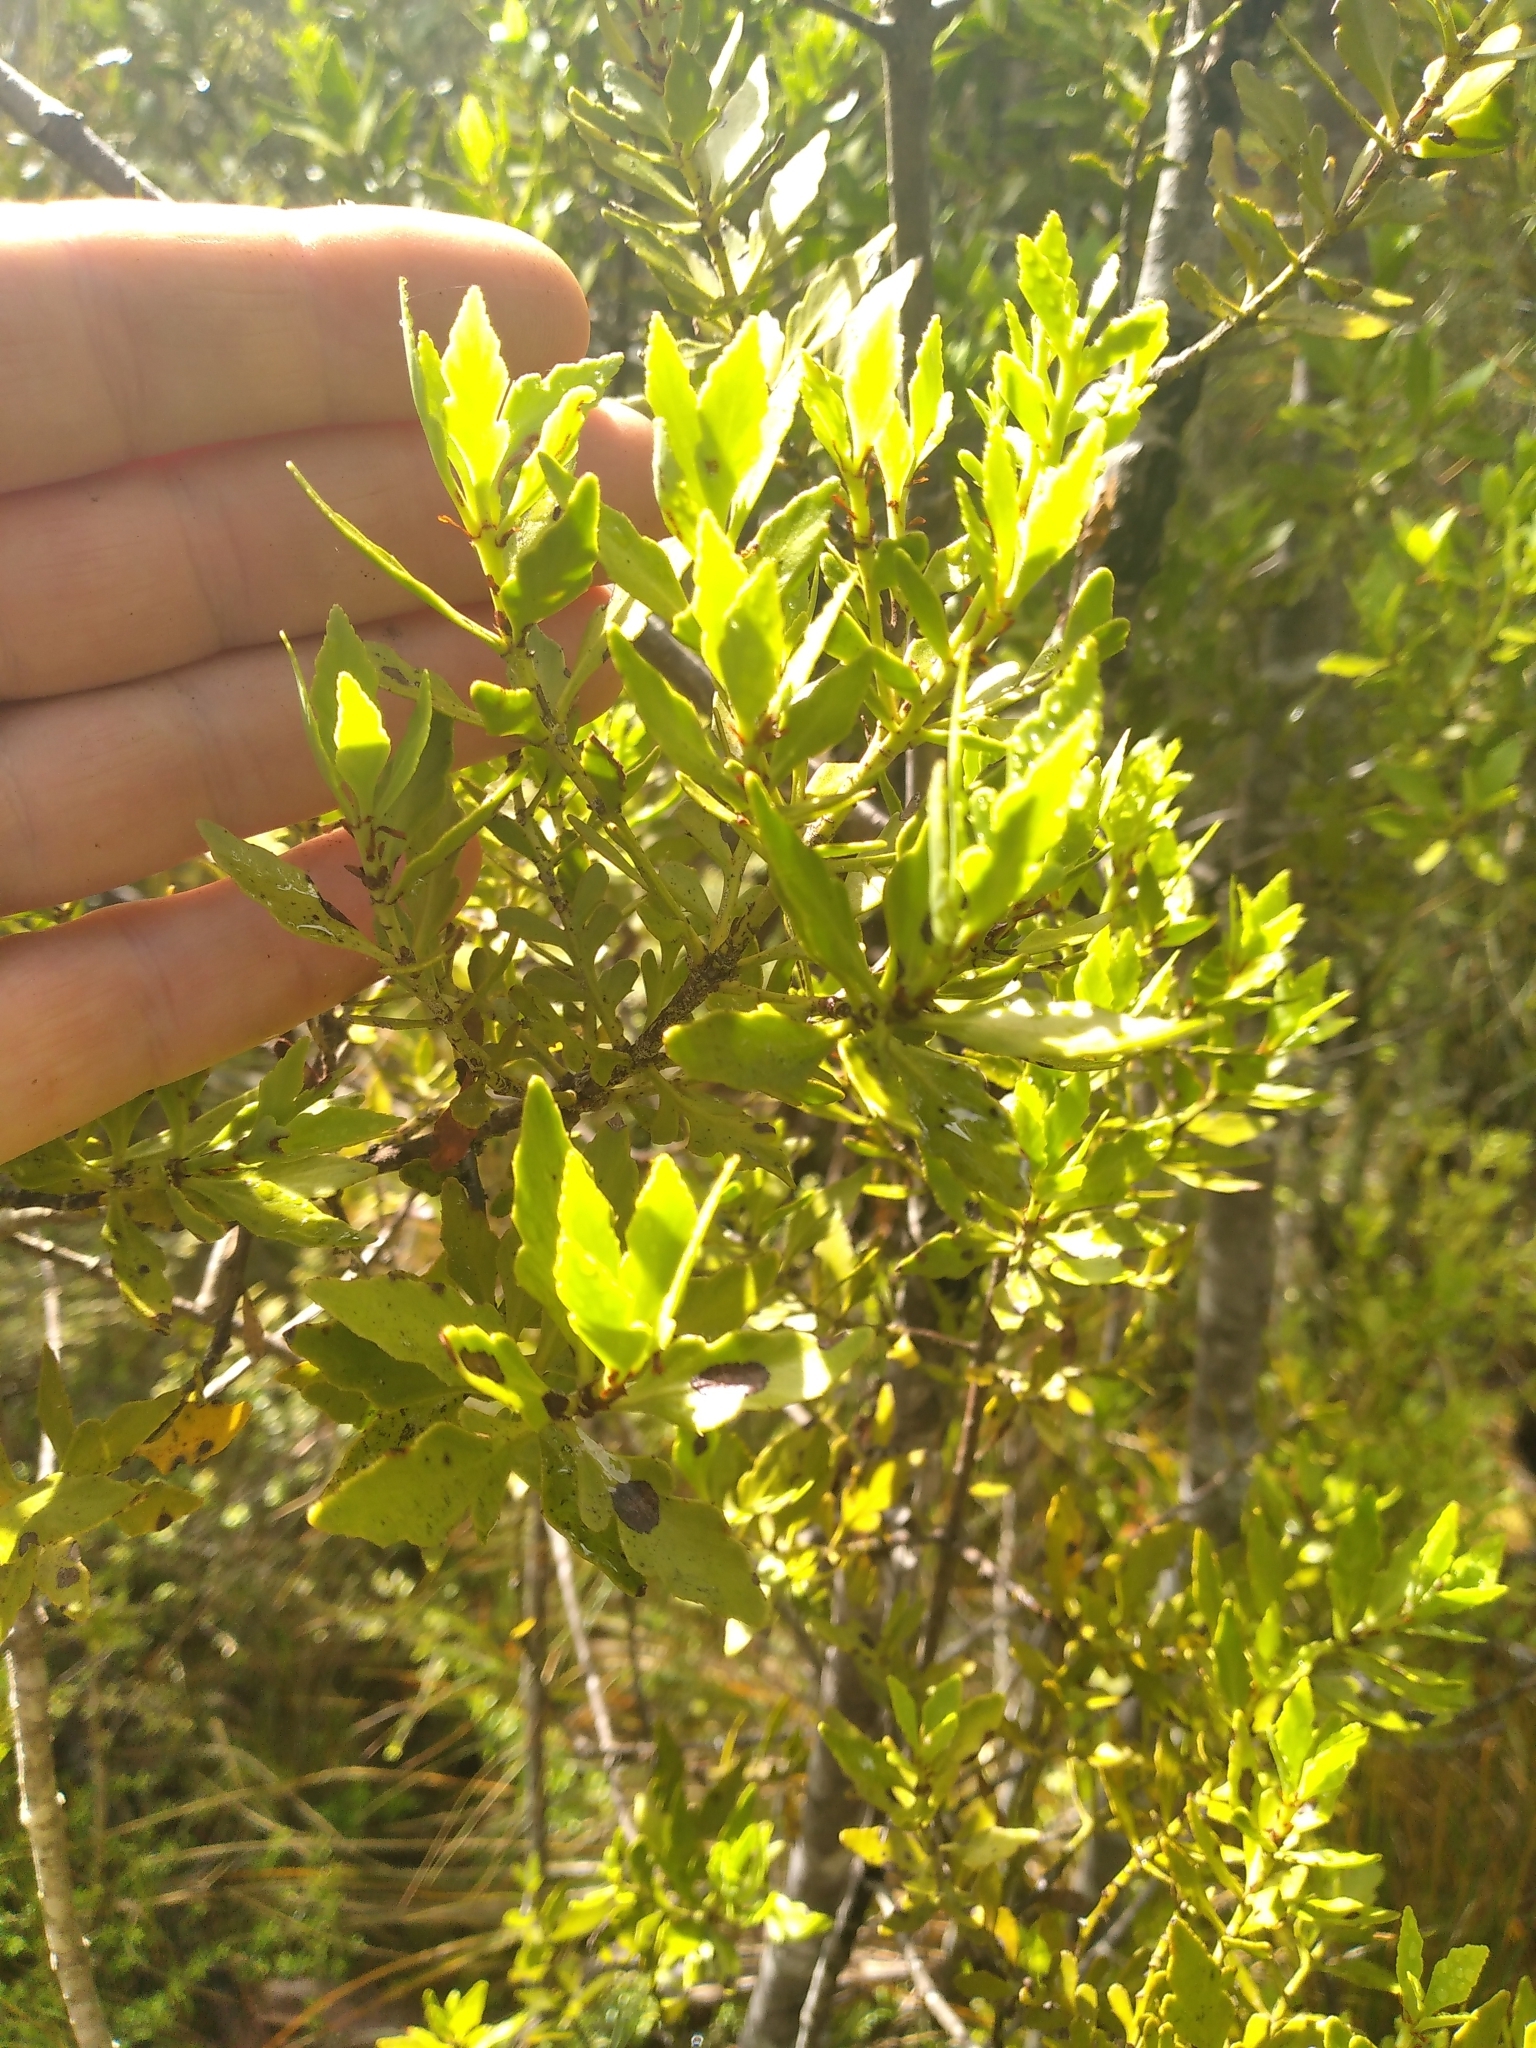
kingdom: Plantae
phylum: Tracheophyta
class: Pinopsida
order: Pinales
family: Phyllocladaceae
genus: Phyllocladus
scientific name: Phyllocladus trichomanoides
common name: Celery pine
